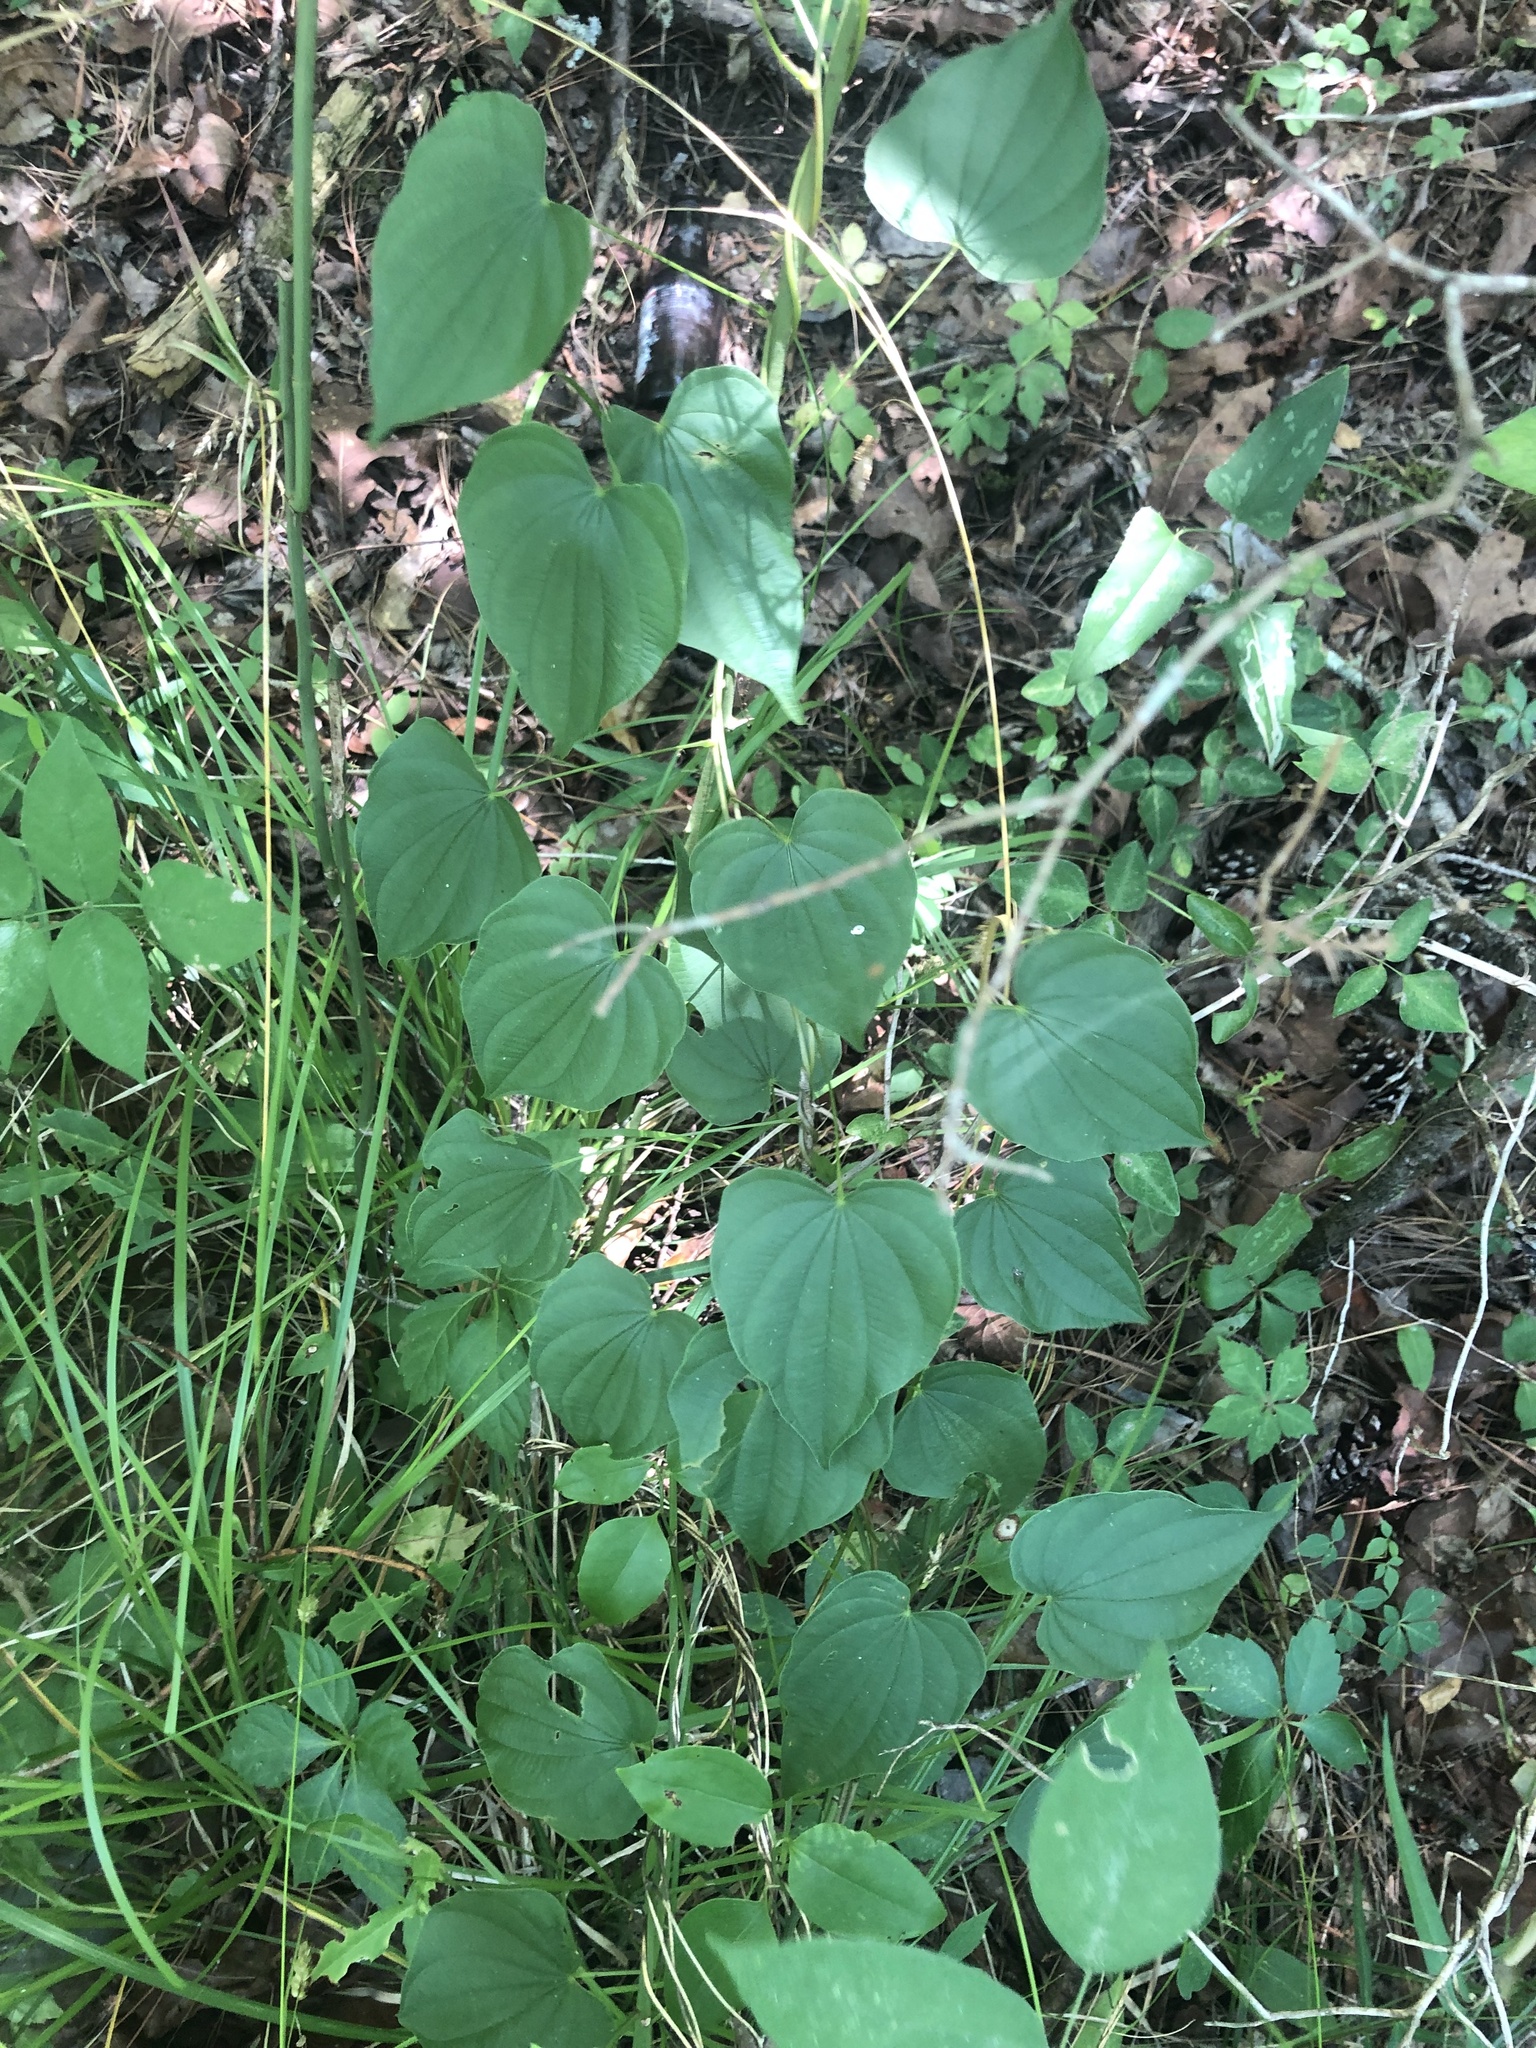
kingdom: Plantae
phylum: Tracheophyta
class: Liliopsida
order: Dioscoreales
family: Dioscoreaceae
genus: Dioscorea
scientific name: Dioscorea villosa
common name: Wild yam
